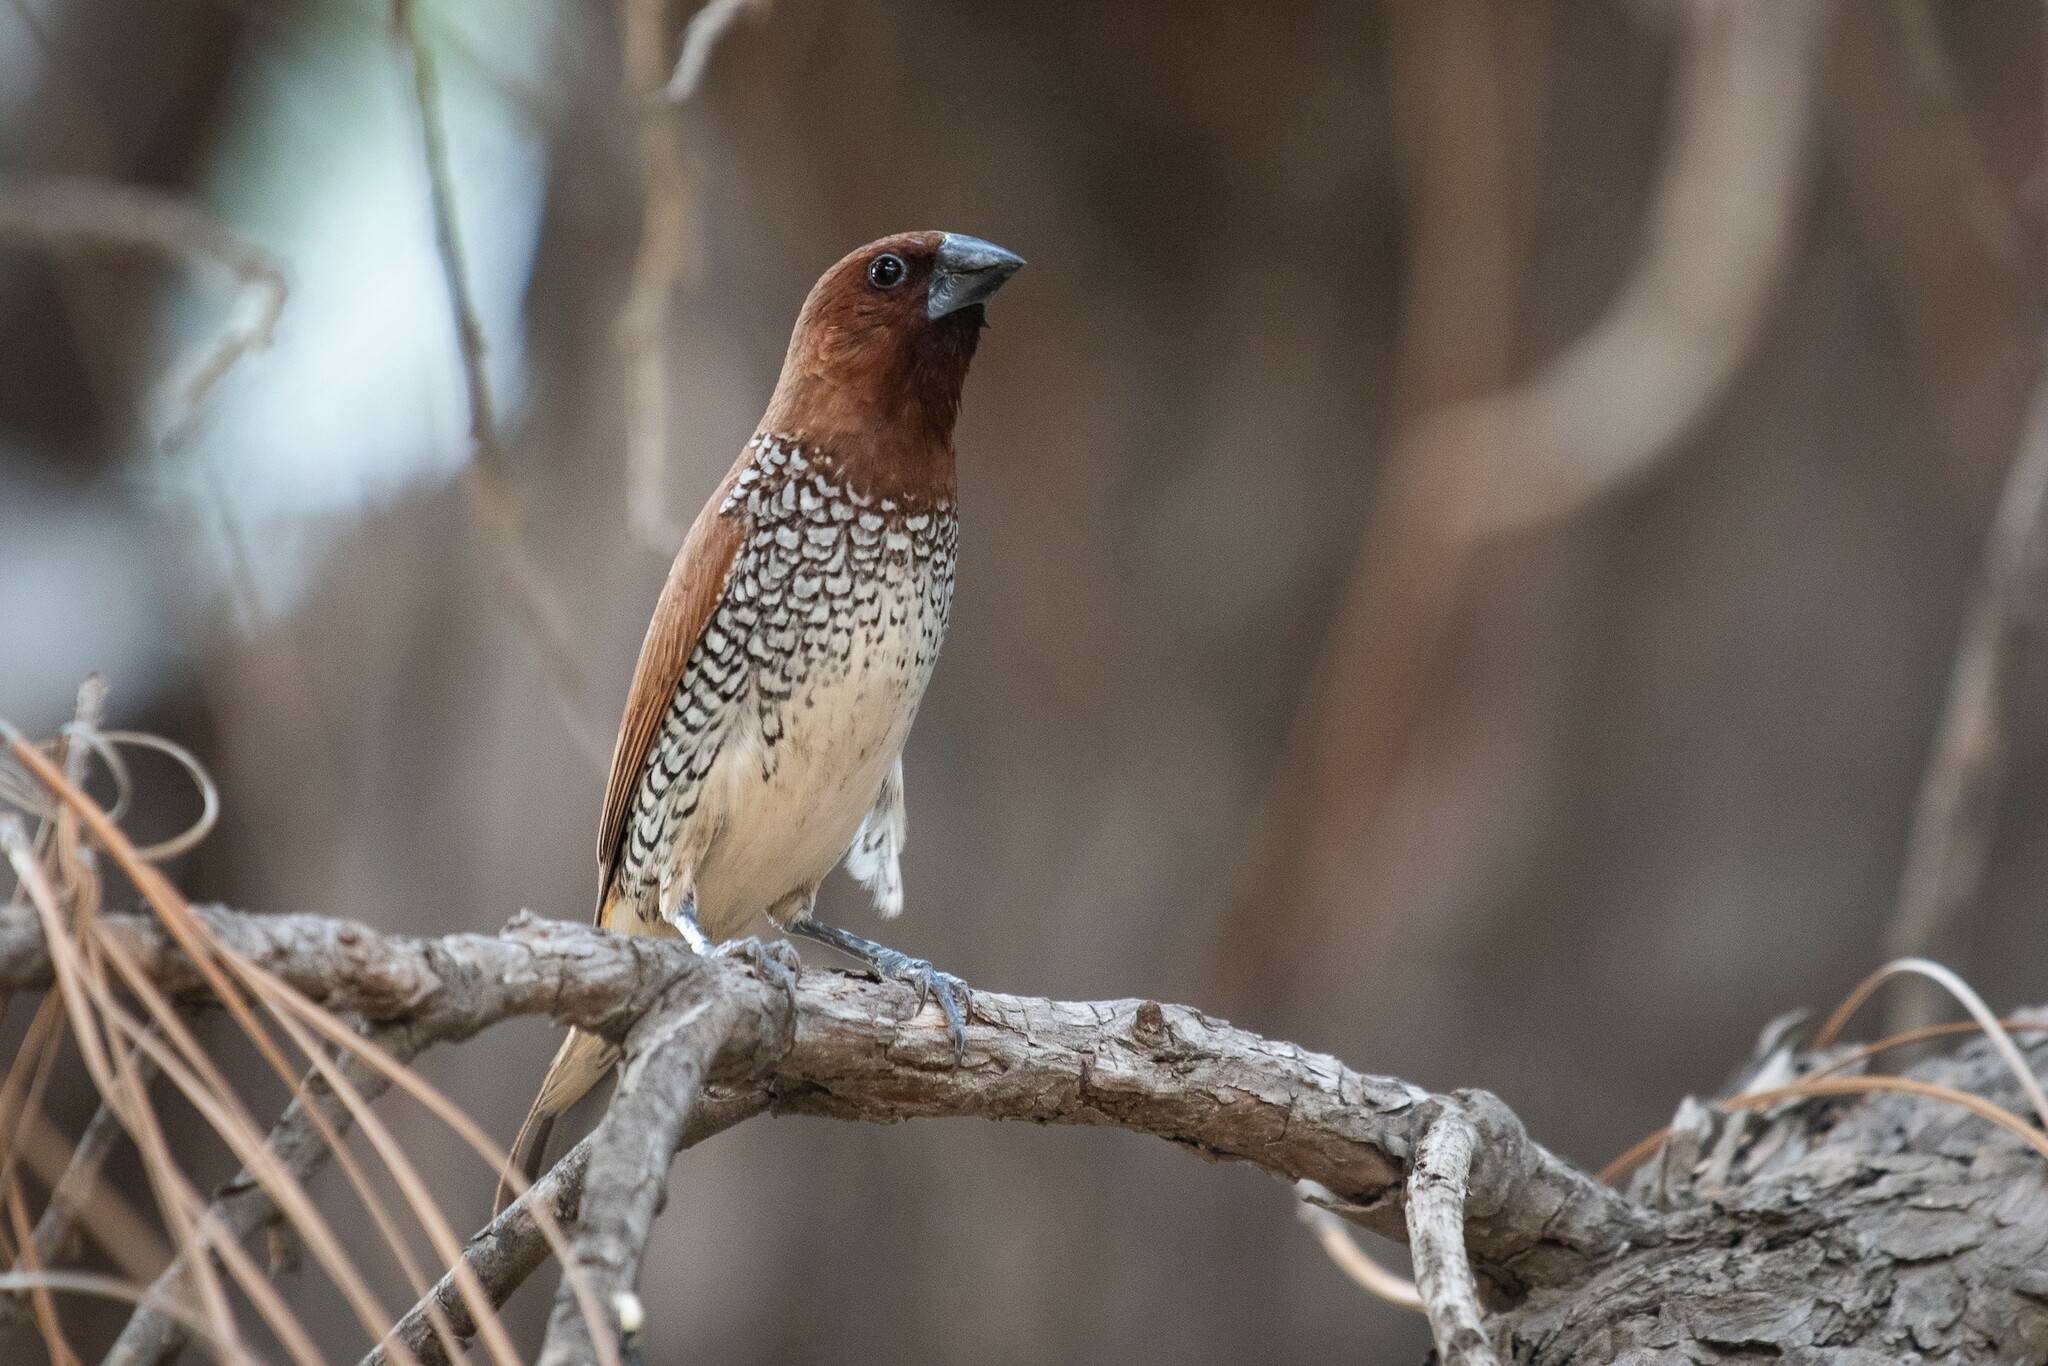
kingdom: Animalia
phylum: Chordata
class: Aves
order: Passeriformes
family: Estrildidae
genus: Lonchura
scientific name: Lonchura punctulata
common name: Scaly-breasted munia
